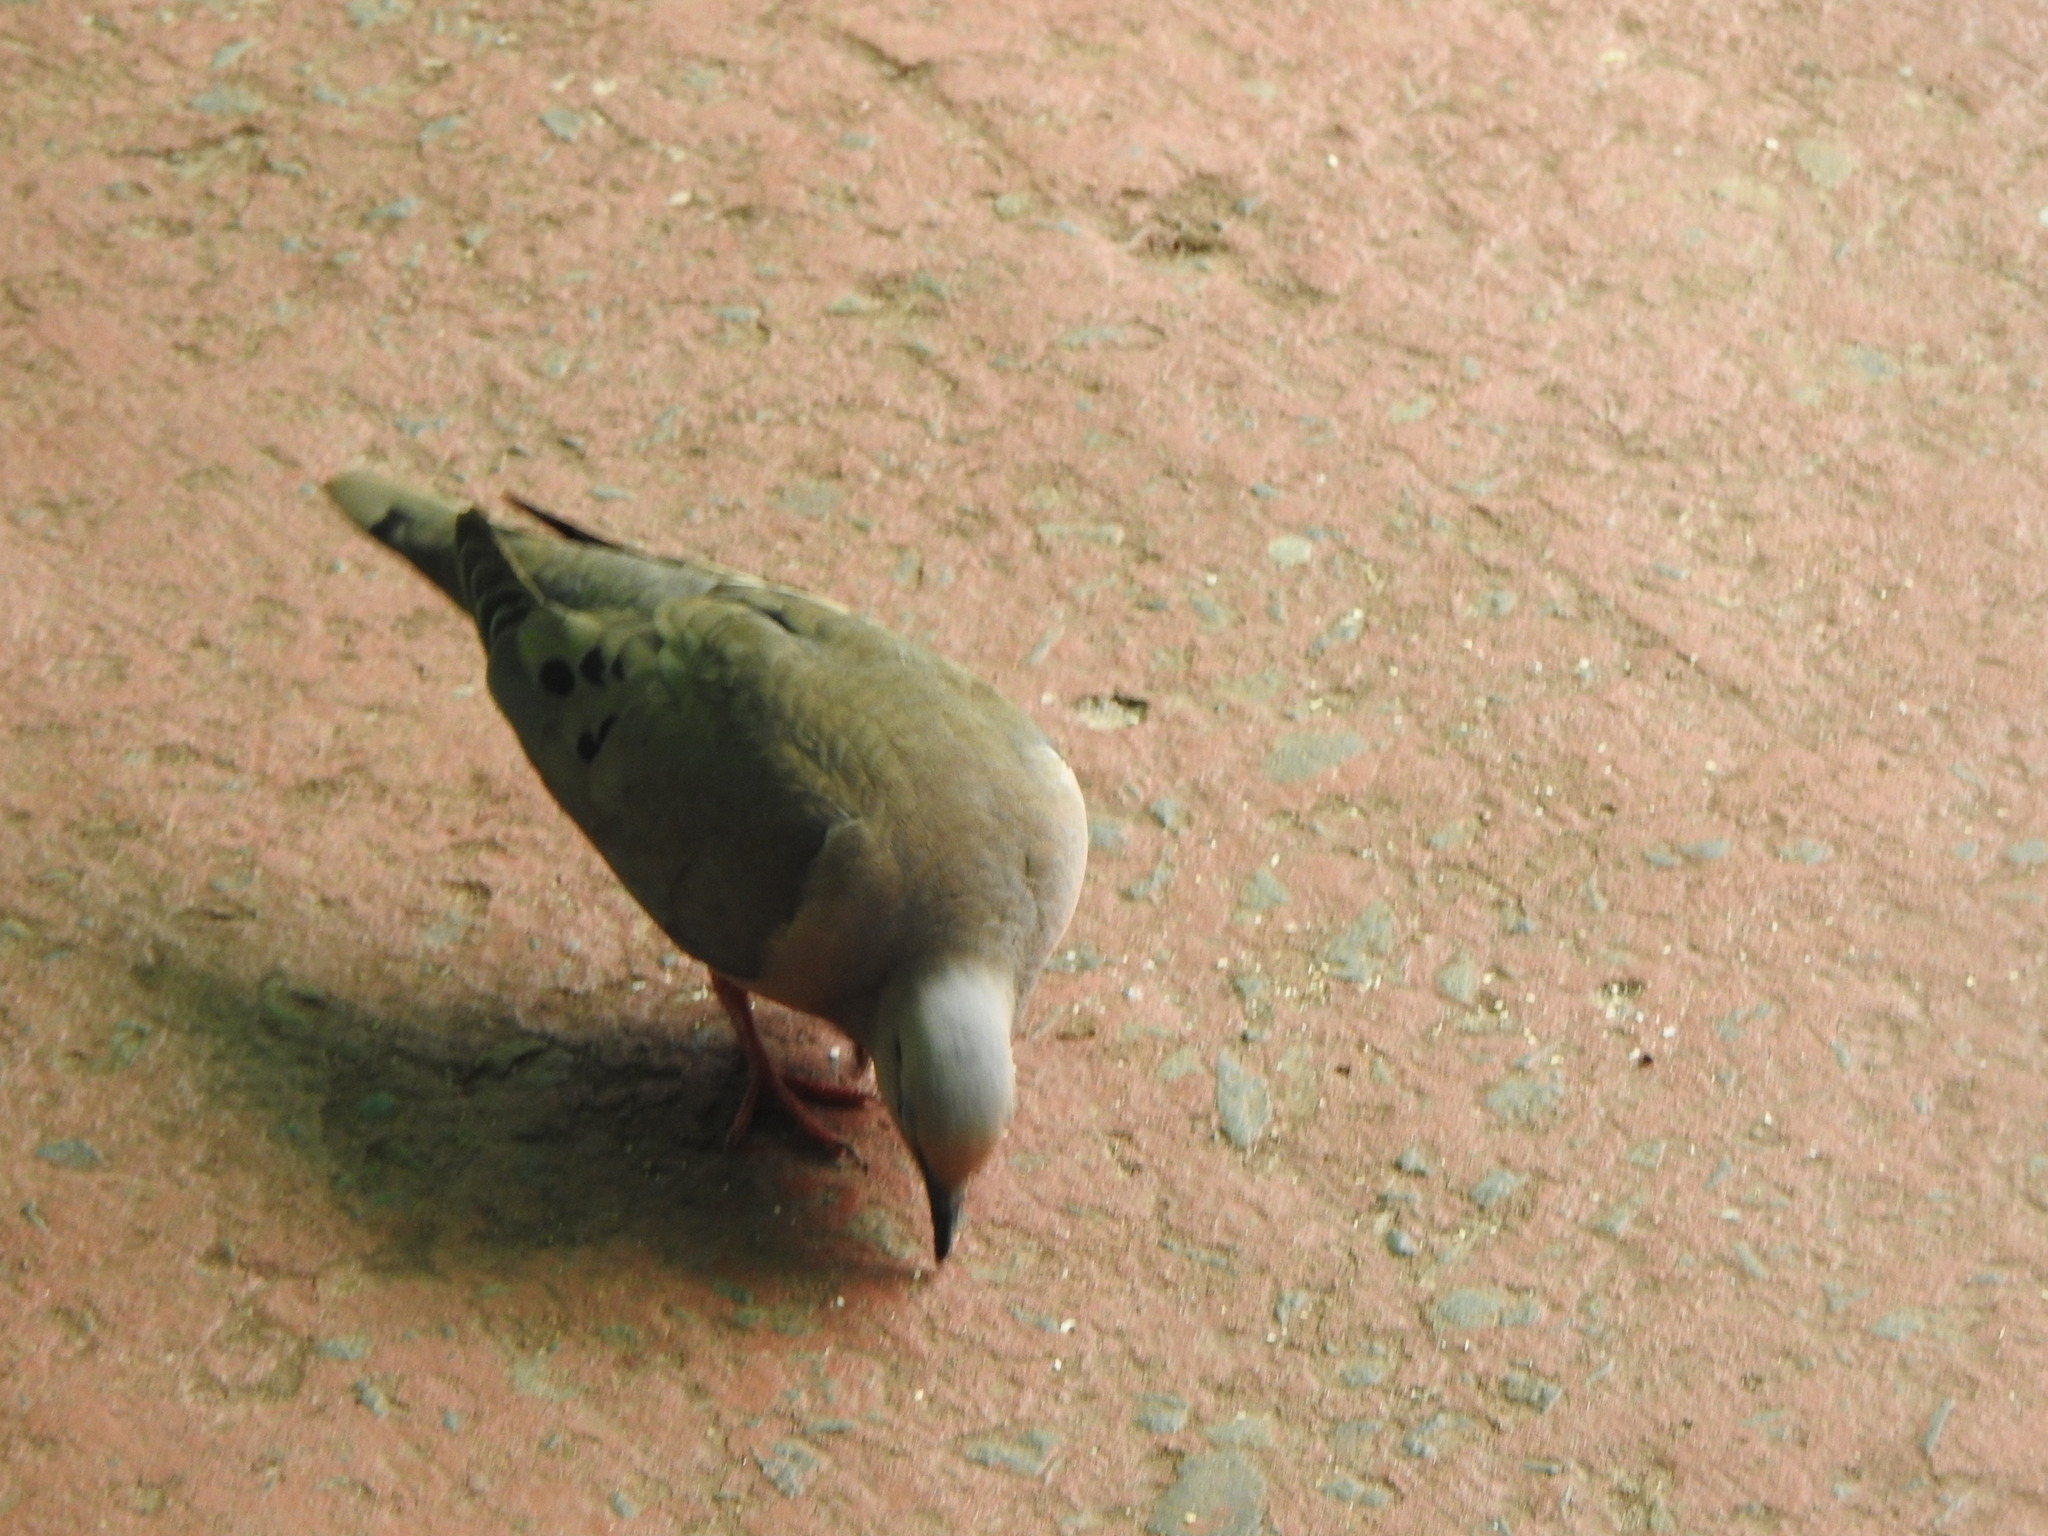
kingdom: Animalia
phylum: Chordata
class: Aves
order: Columbiformes
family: Columbidae
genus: Zenaida
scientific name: Zenaida auriculata
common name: Eared dove
